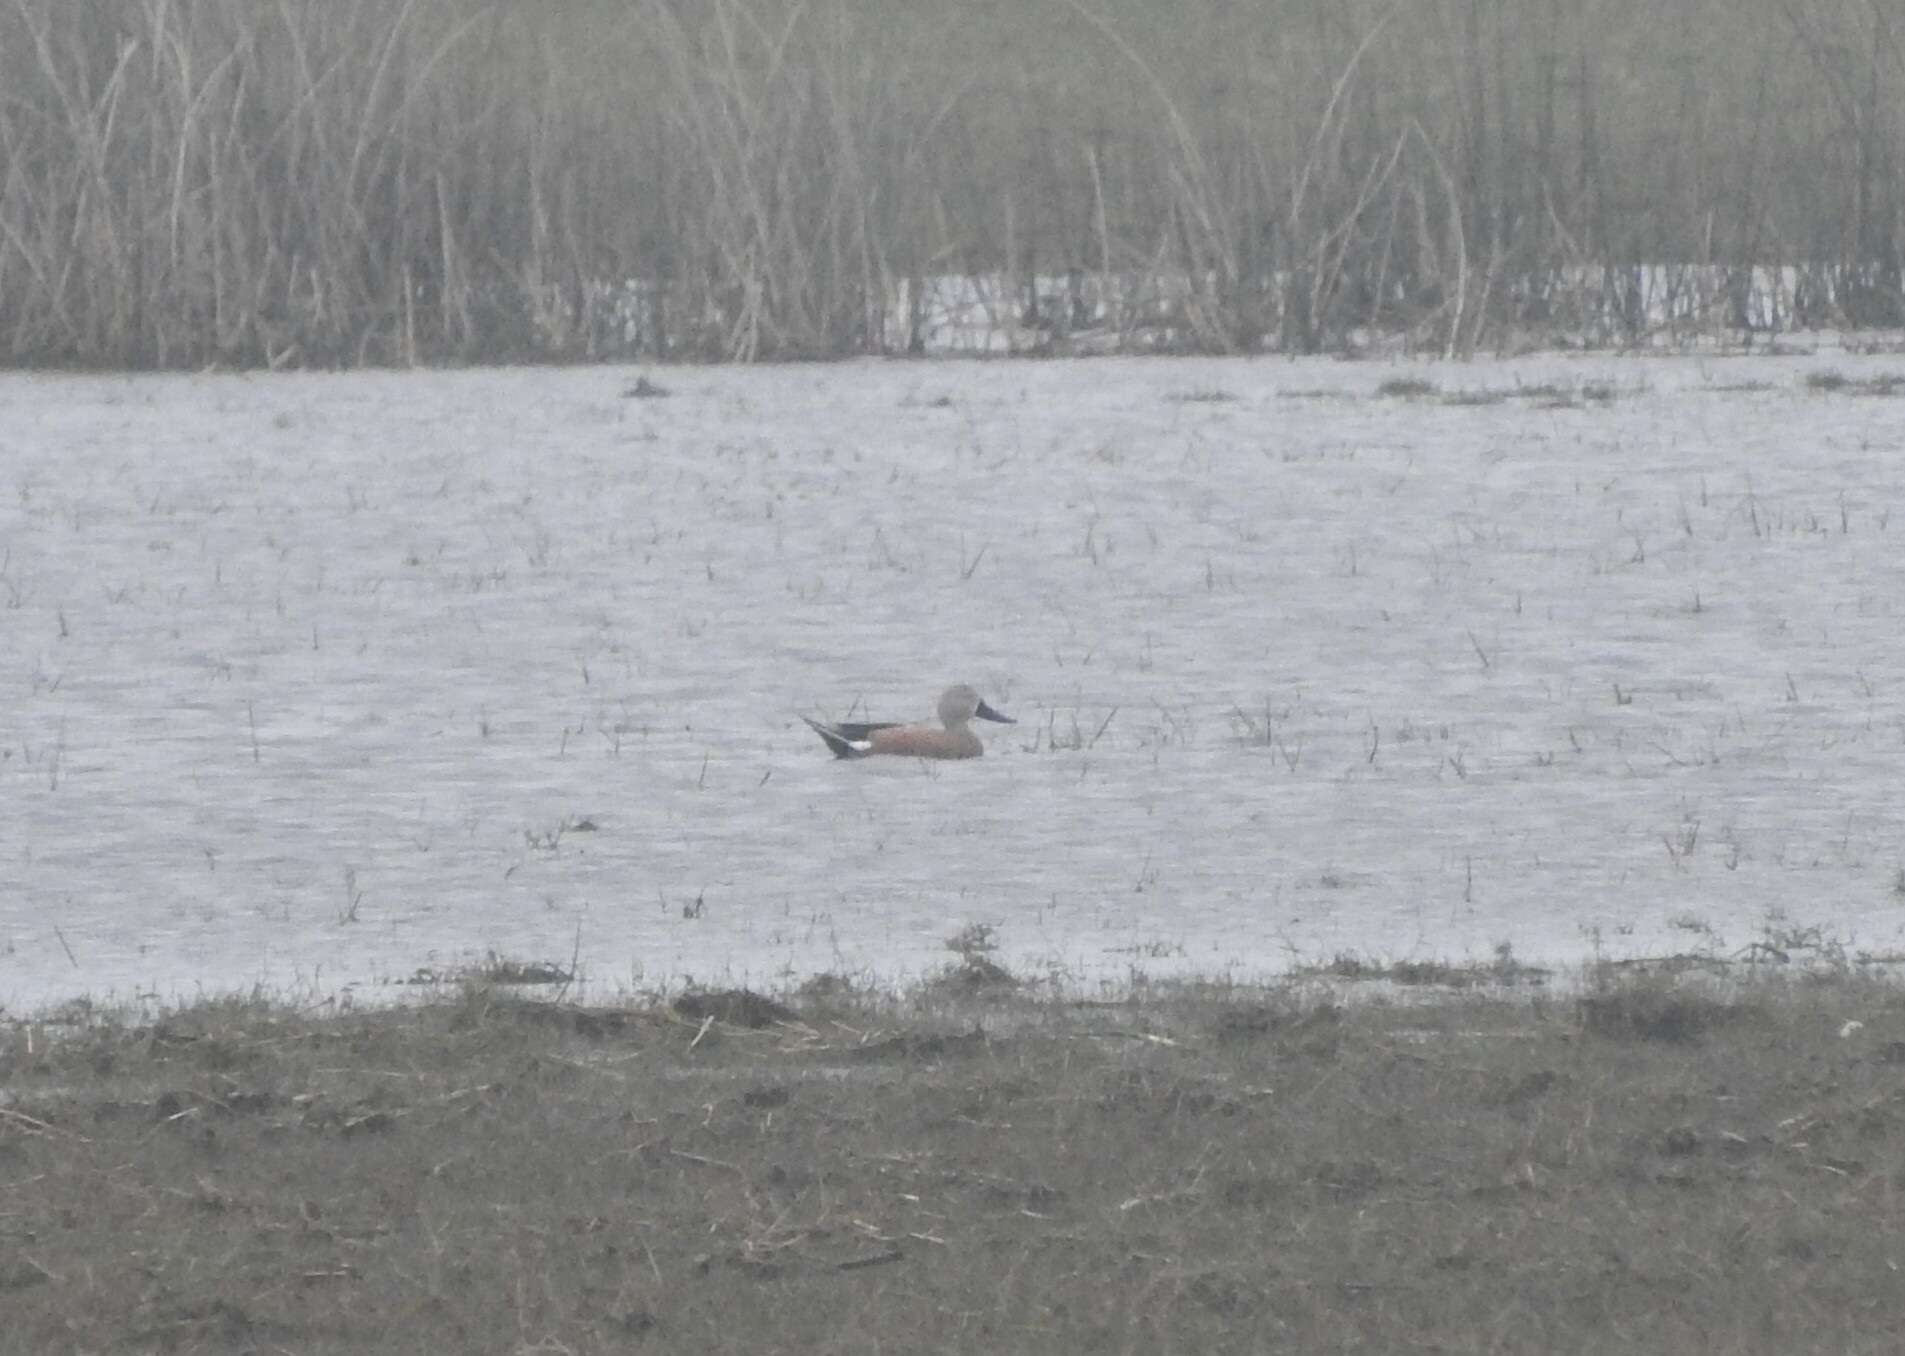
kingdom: Animalia
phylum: Chordata
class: Aves
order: Anseriformes
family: Anatidae
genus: Spatula
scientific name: Spatula platalea
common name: Red shoveler
